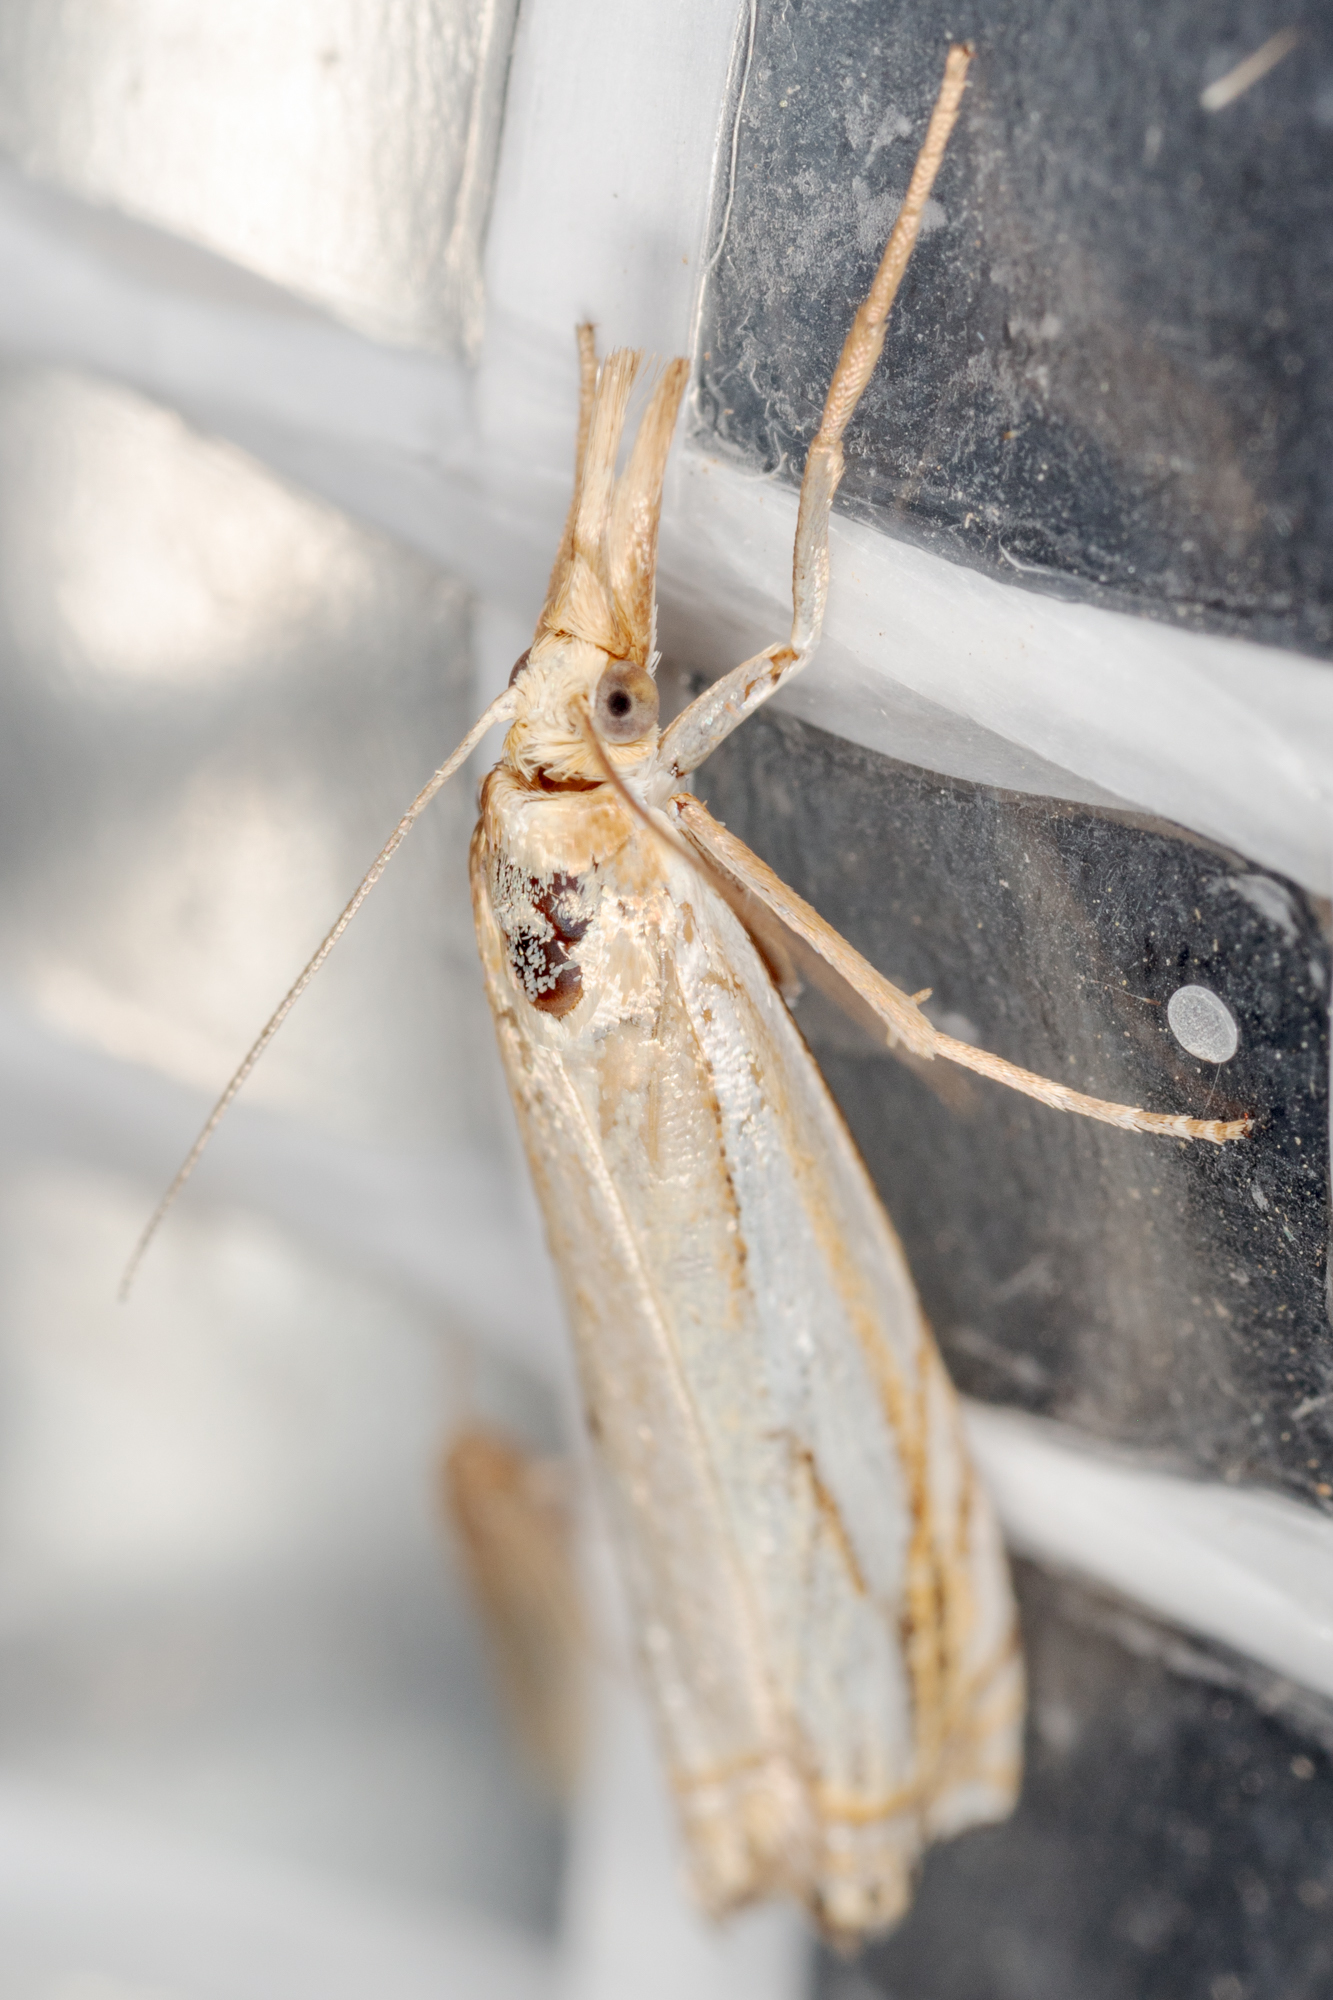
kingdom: Animalia
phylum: Arthropoda
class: Insecta
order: Lepidoptera
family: Crambidae
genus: Crambus
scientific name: Crambus agitatellus
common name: Double-banded grass-veneer
